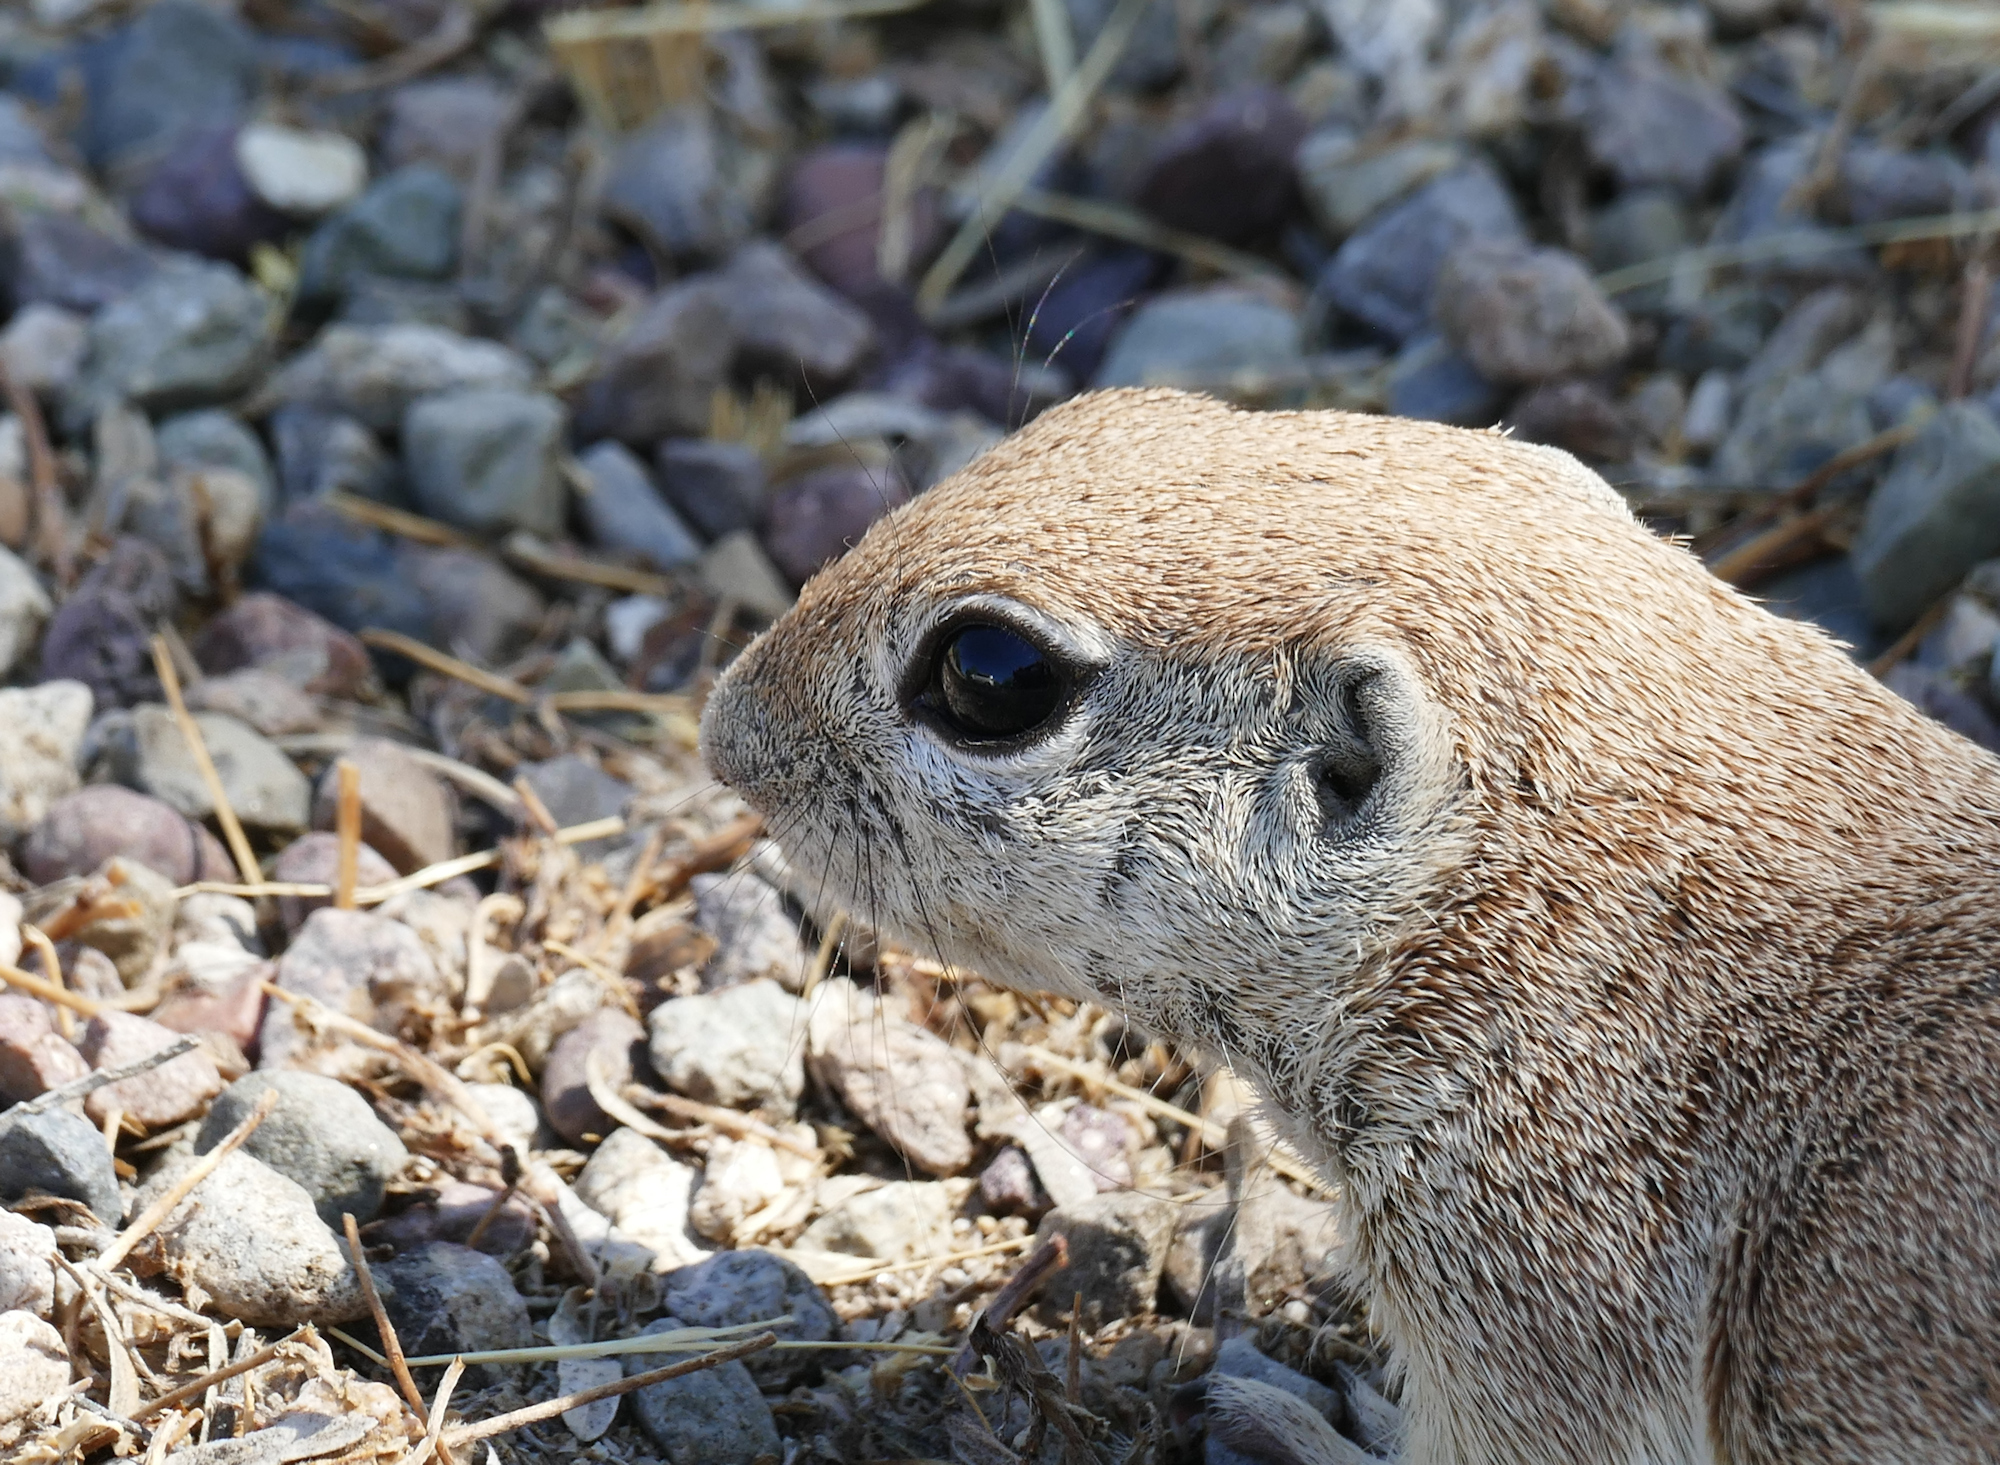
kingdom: Animalia
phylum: Chordata
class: Mammalia
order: Rodentia
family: Sciuridae
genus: Xerospermophilus
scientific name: Xerospermophilus tereticaudus
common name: Round-tailed ground squirrel
